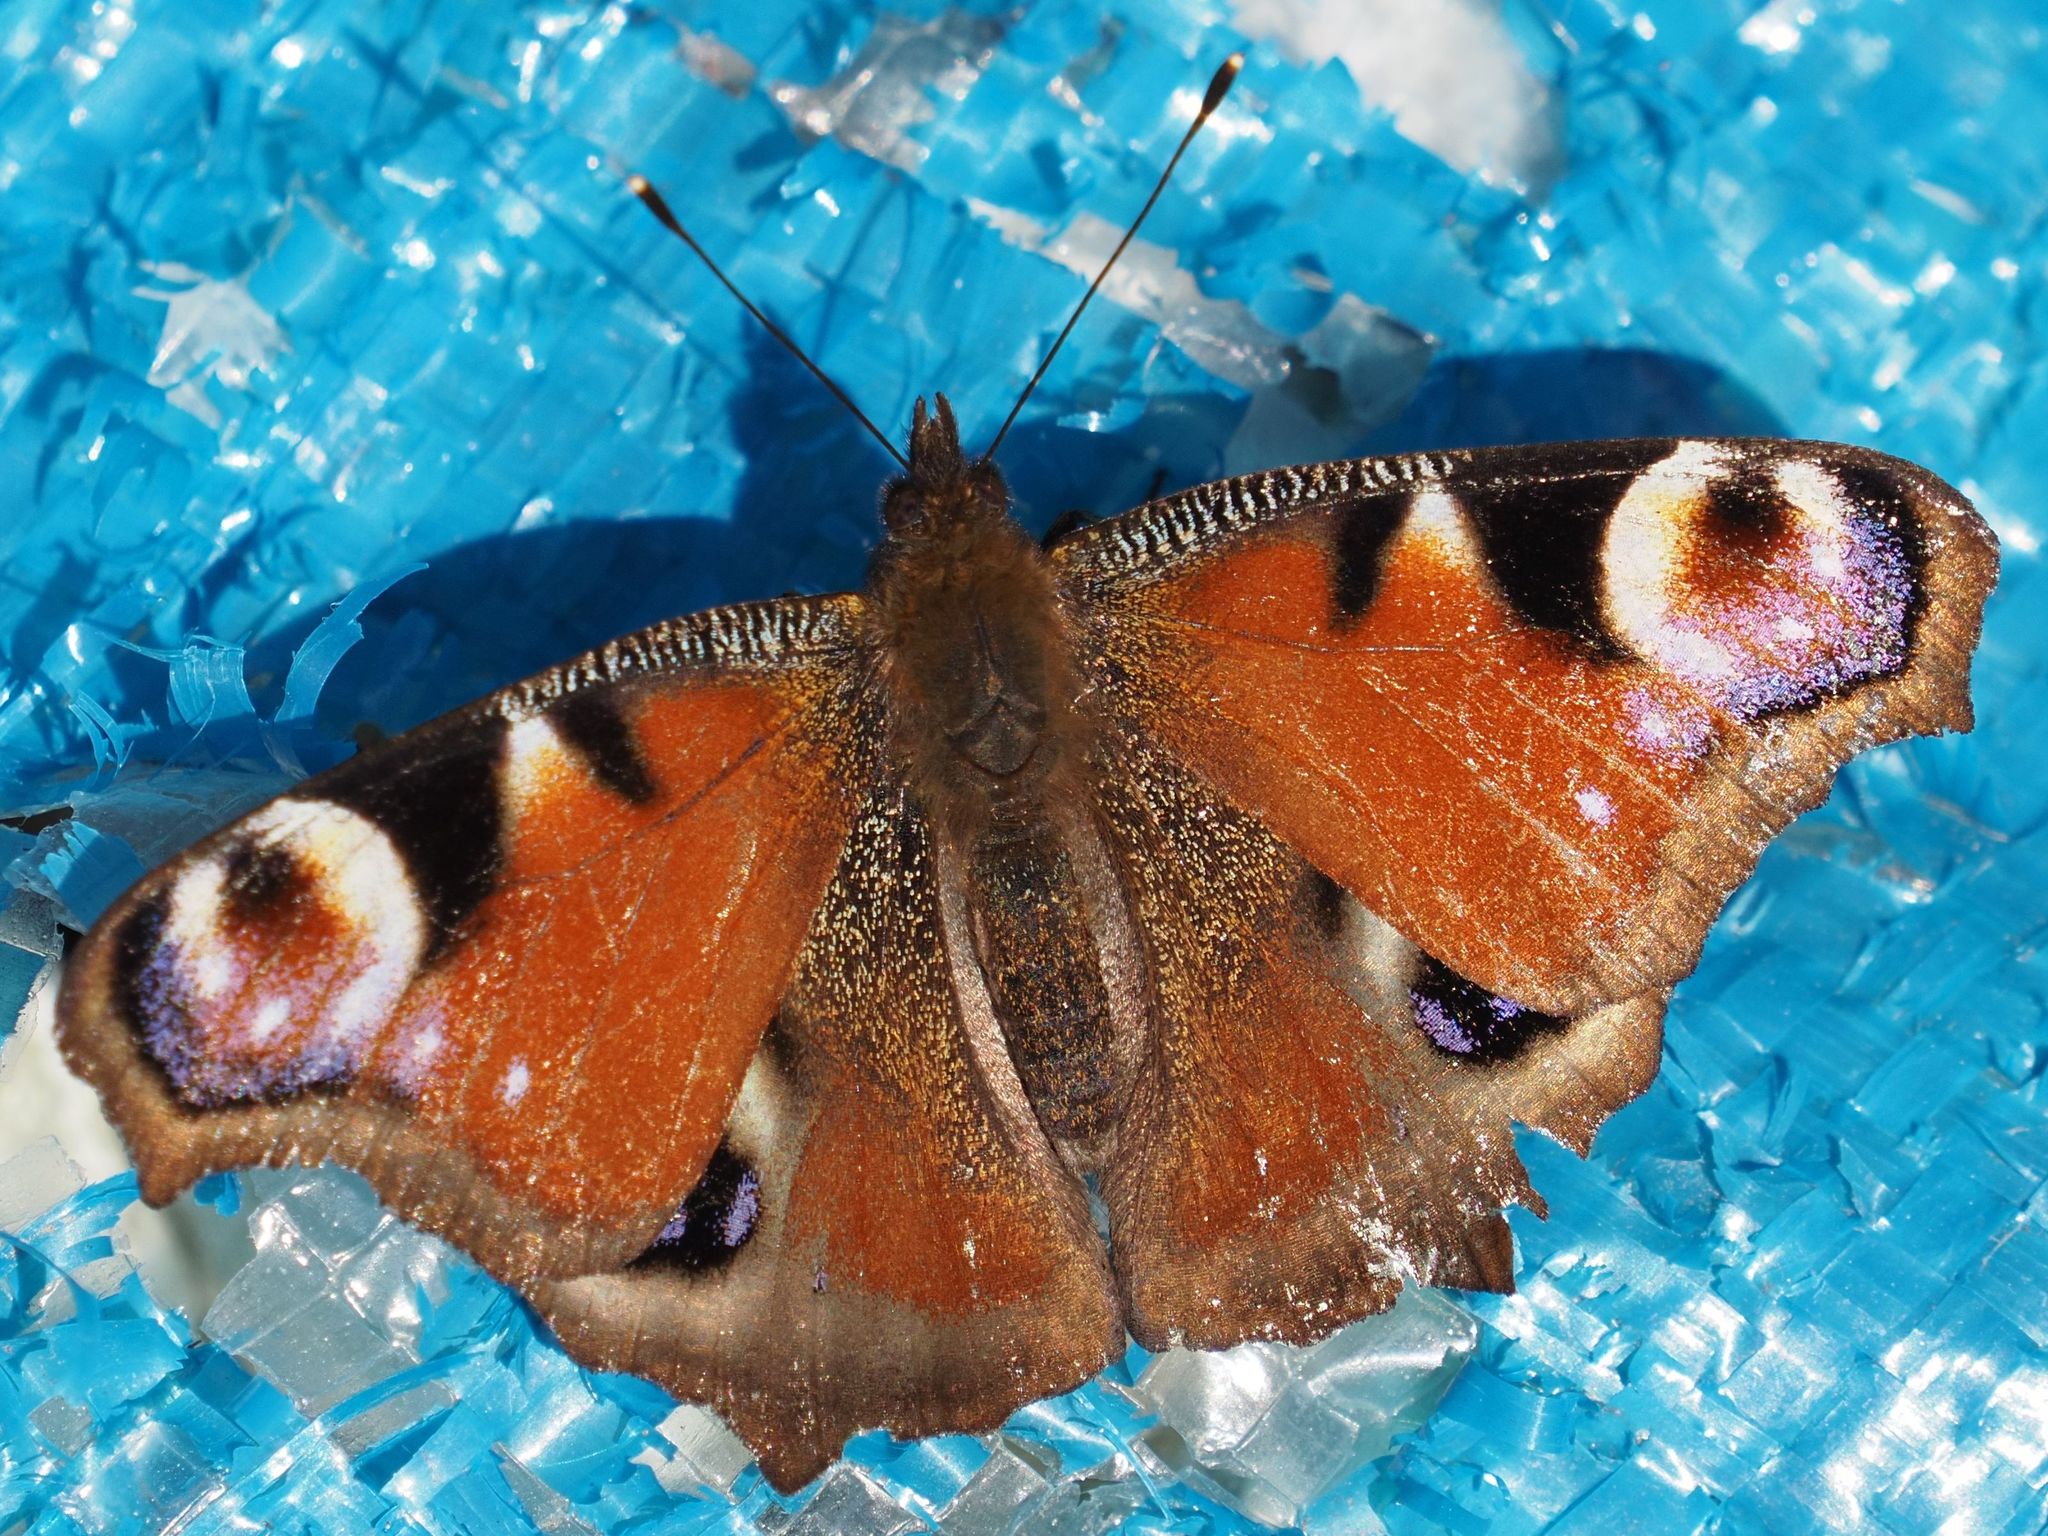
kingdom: Animalia
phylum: Arthropoda
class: Insecta
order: Lepidoptera
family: Nymphalidae
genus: Aglais
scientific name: Aglais io
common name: Peacock
